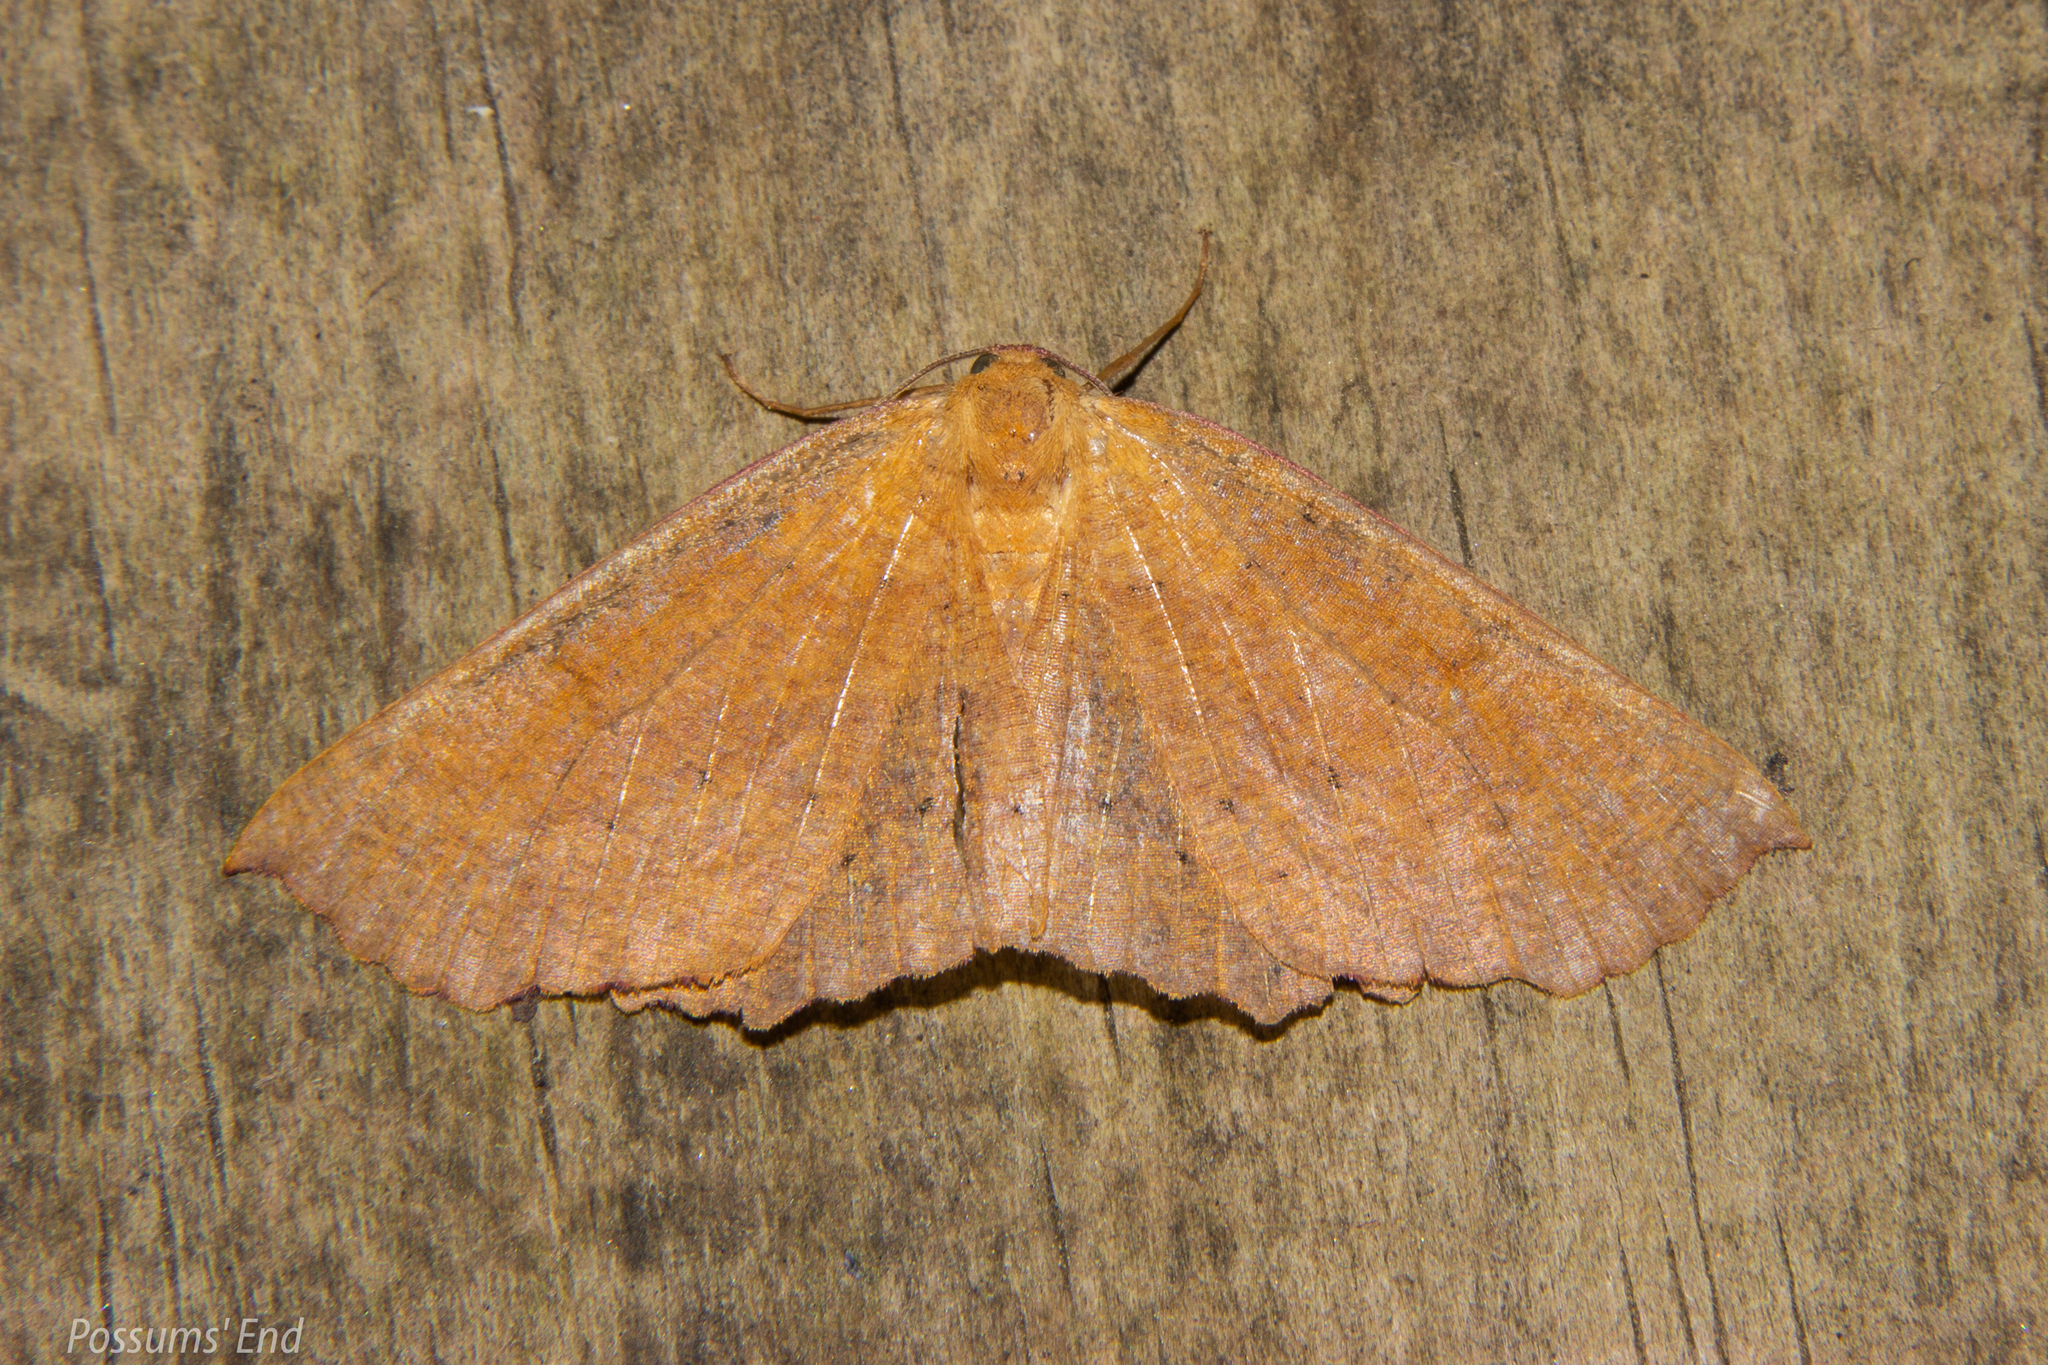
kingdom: Animalia
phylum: Arthropoda
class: Insecta
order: Lepidoptera
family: Geometridae
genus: Xyridacma
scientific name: Xyridacma alectoraria
